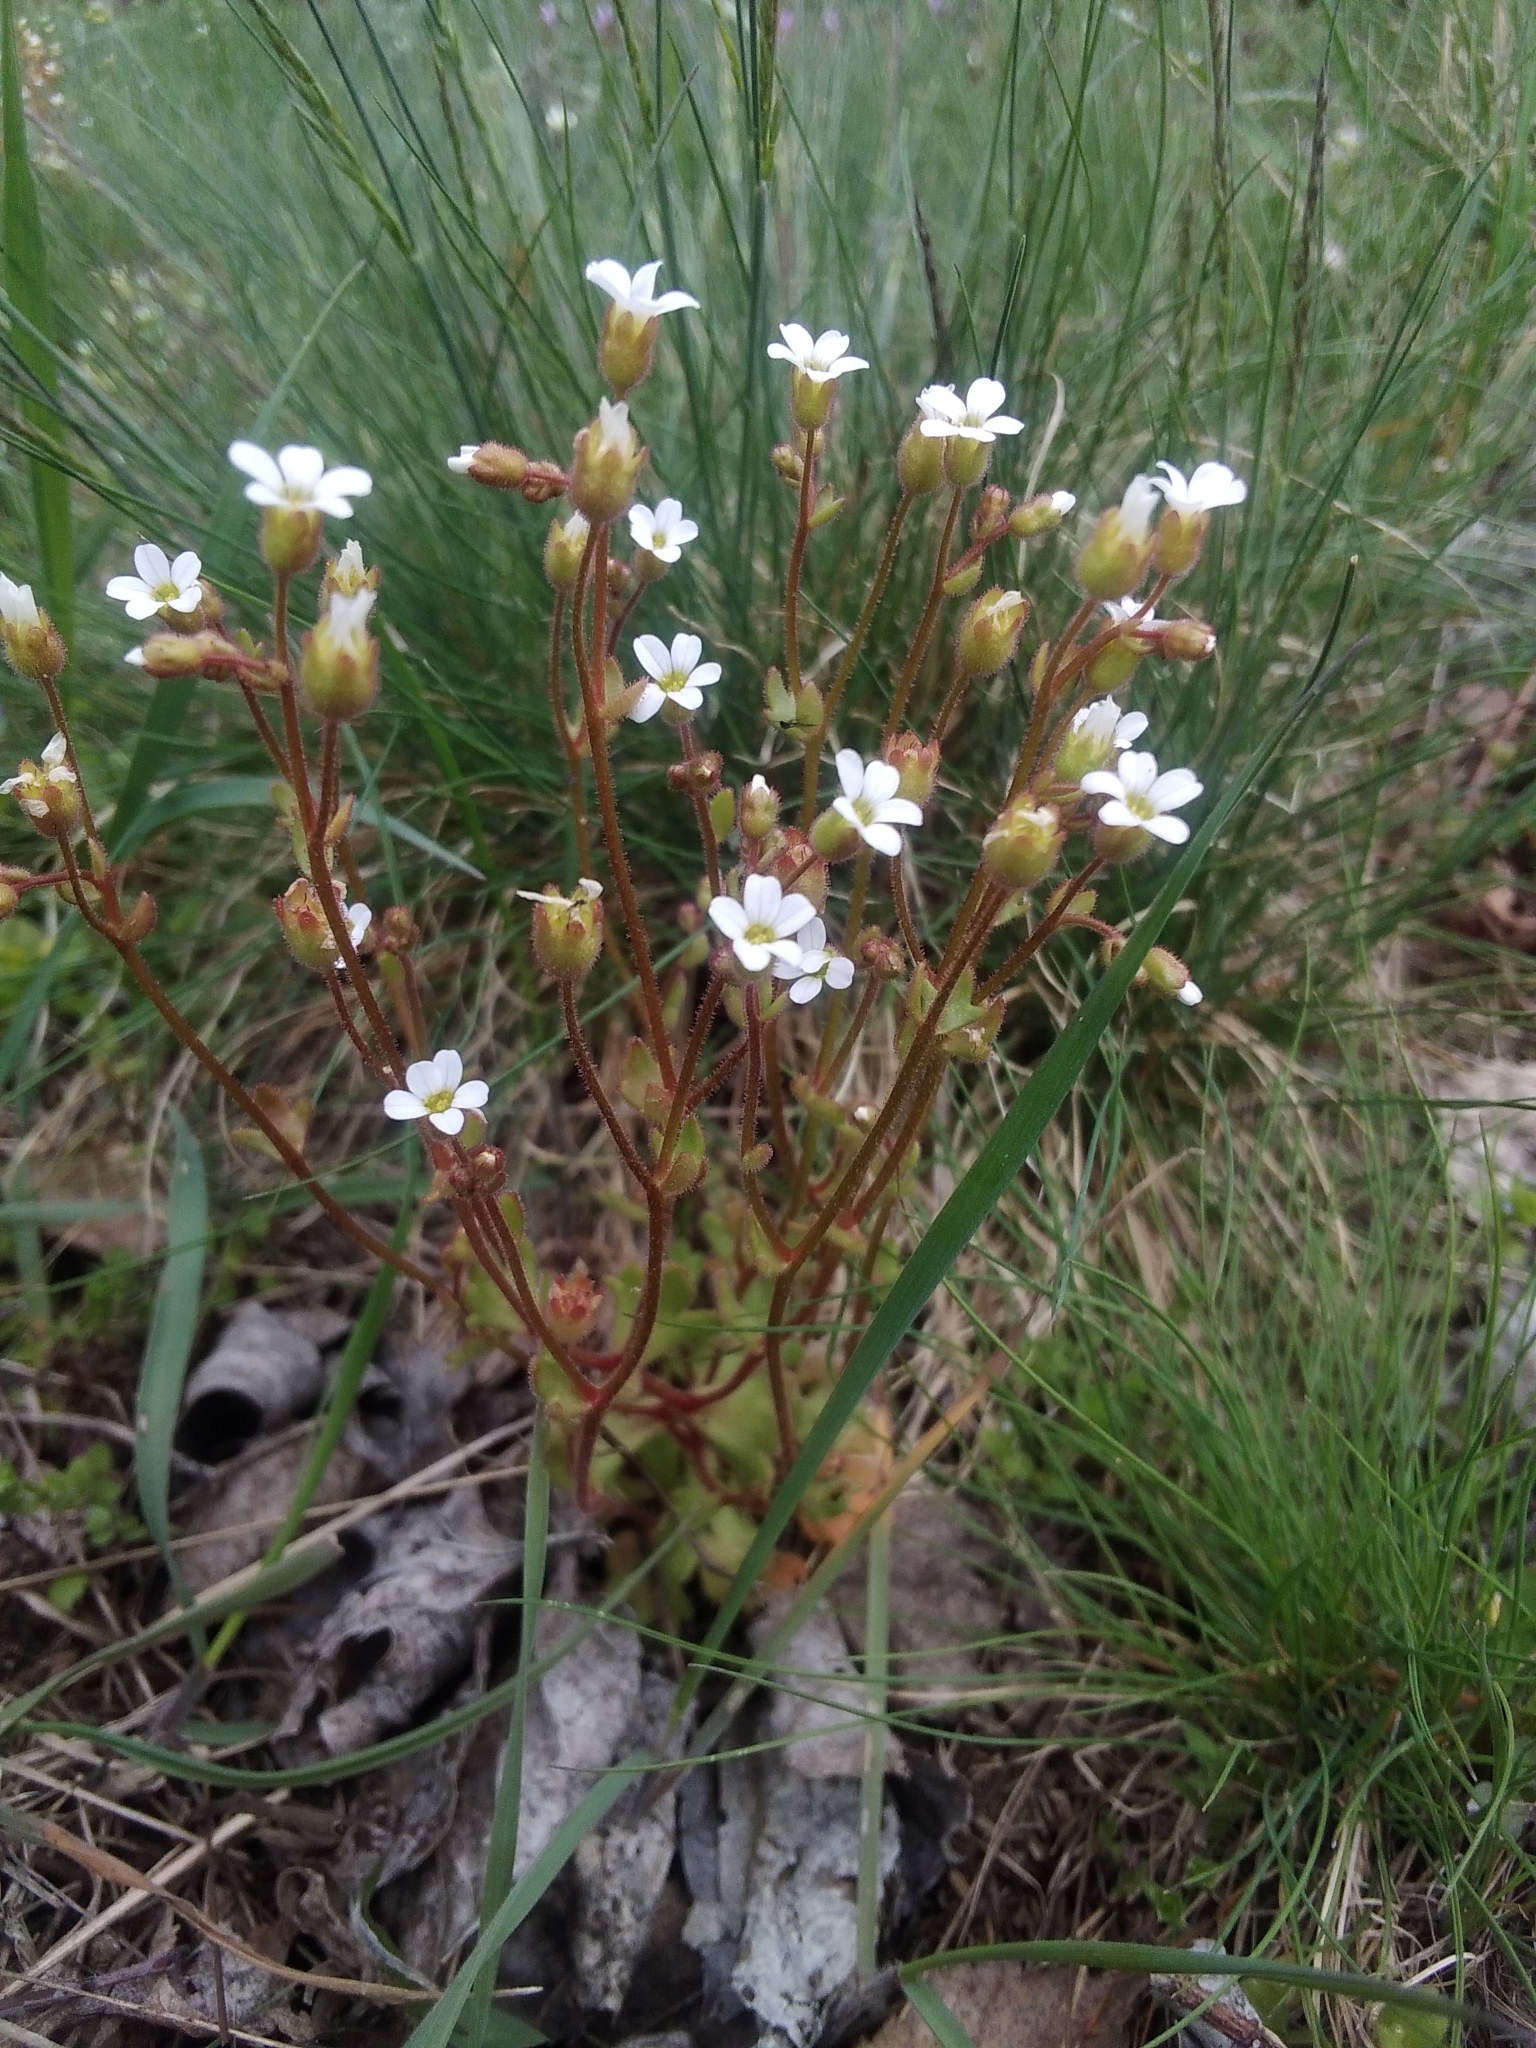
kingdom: Plantae
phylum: Tracheophyta
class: Magnoliopsida
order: Saxifragales
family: Saxifragaceae
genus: Saxifraga
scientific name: Saxifraga tridactylites
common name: Rue-leaved saxifrage
